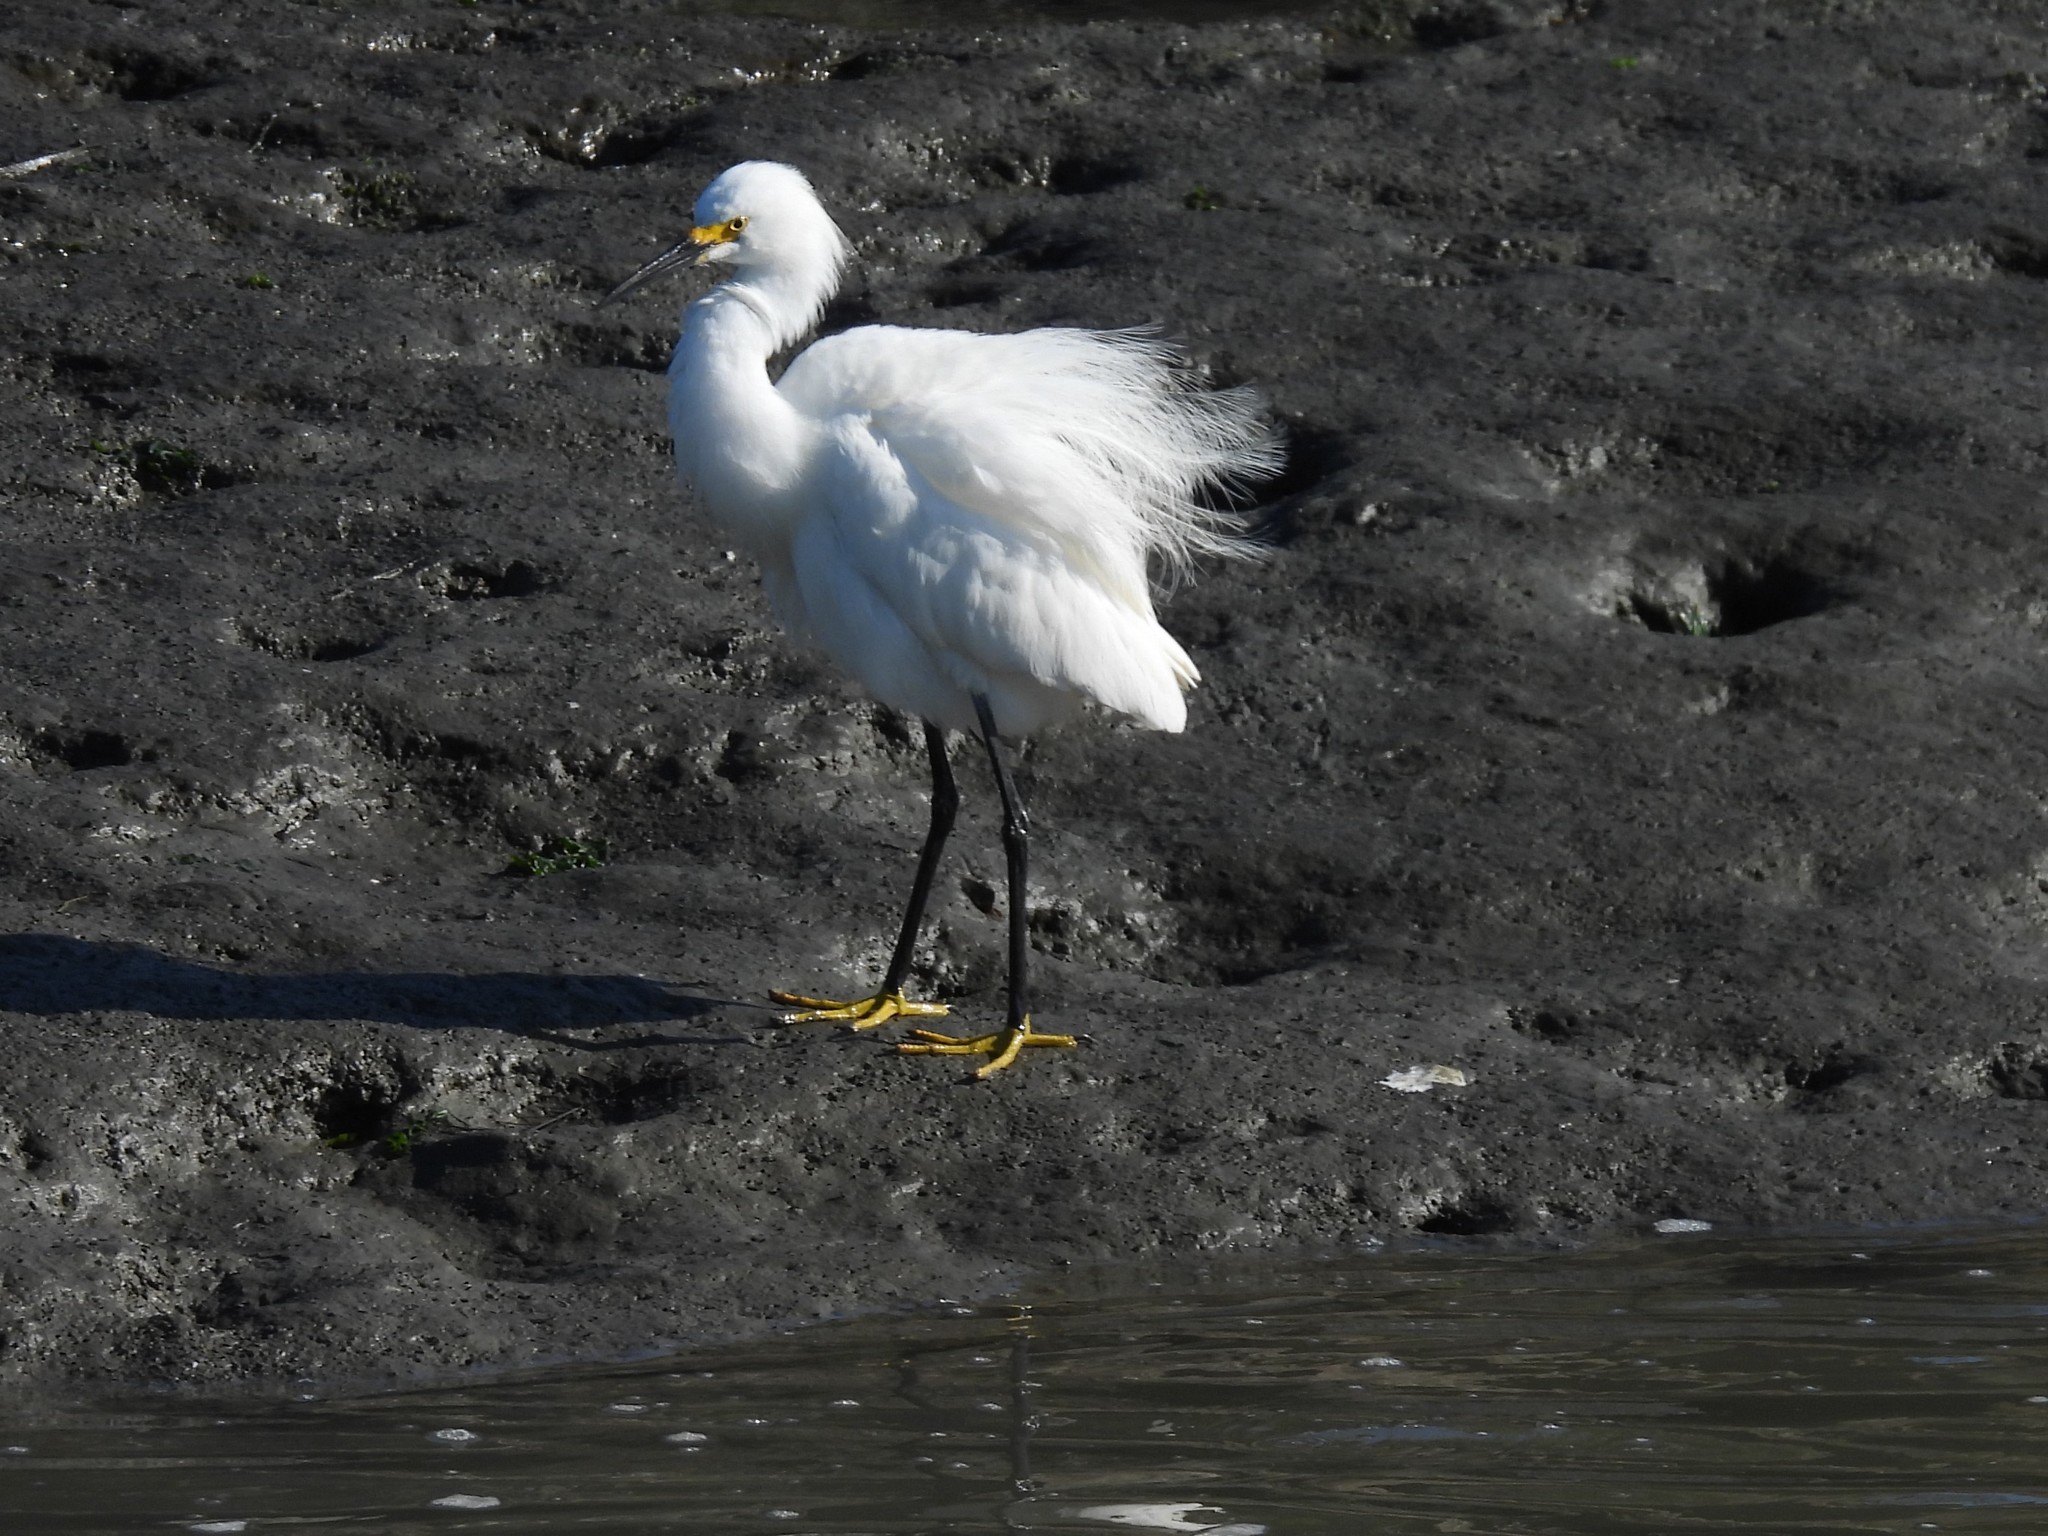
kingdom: Animalia
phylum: Chordata
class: Aves
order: Pelecaniformes
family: Ardeidae
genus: Egretta
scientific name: Egretta thula
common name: Snowy egret
